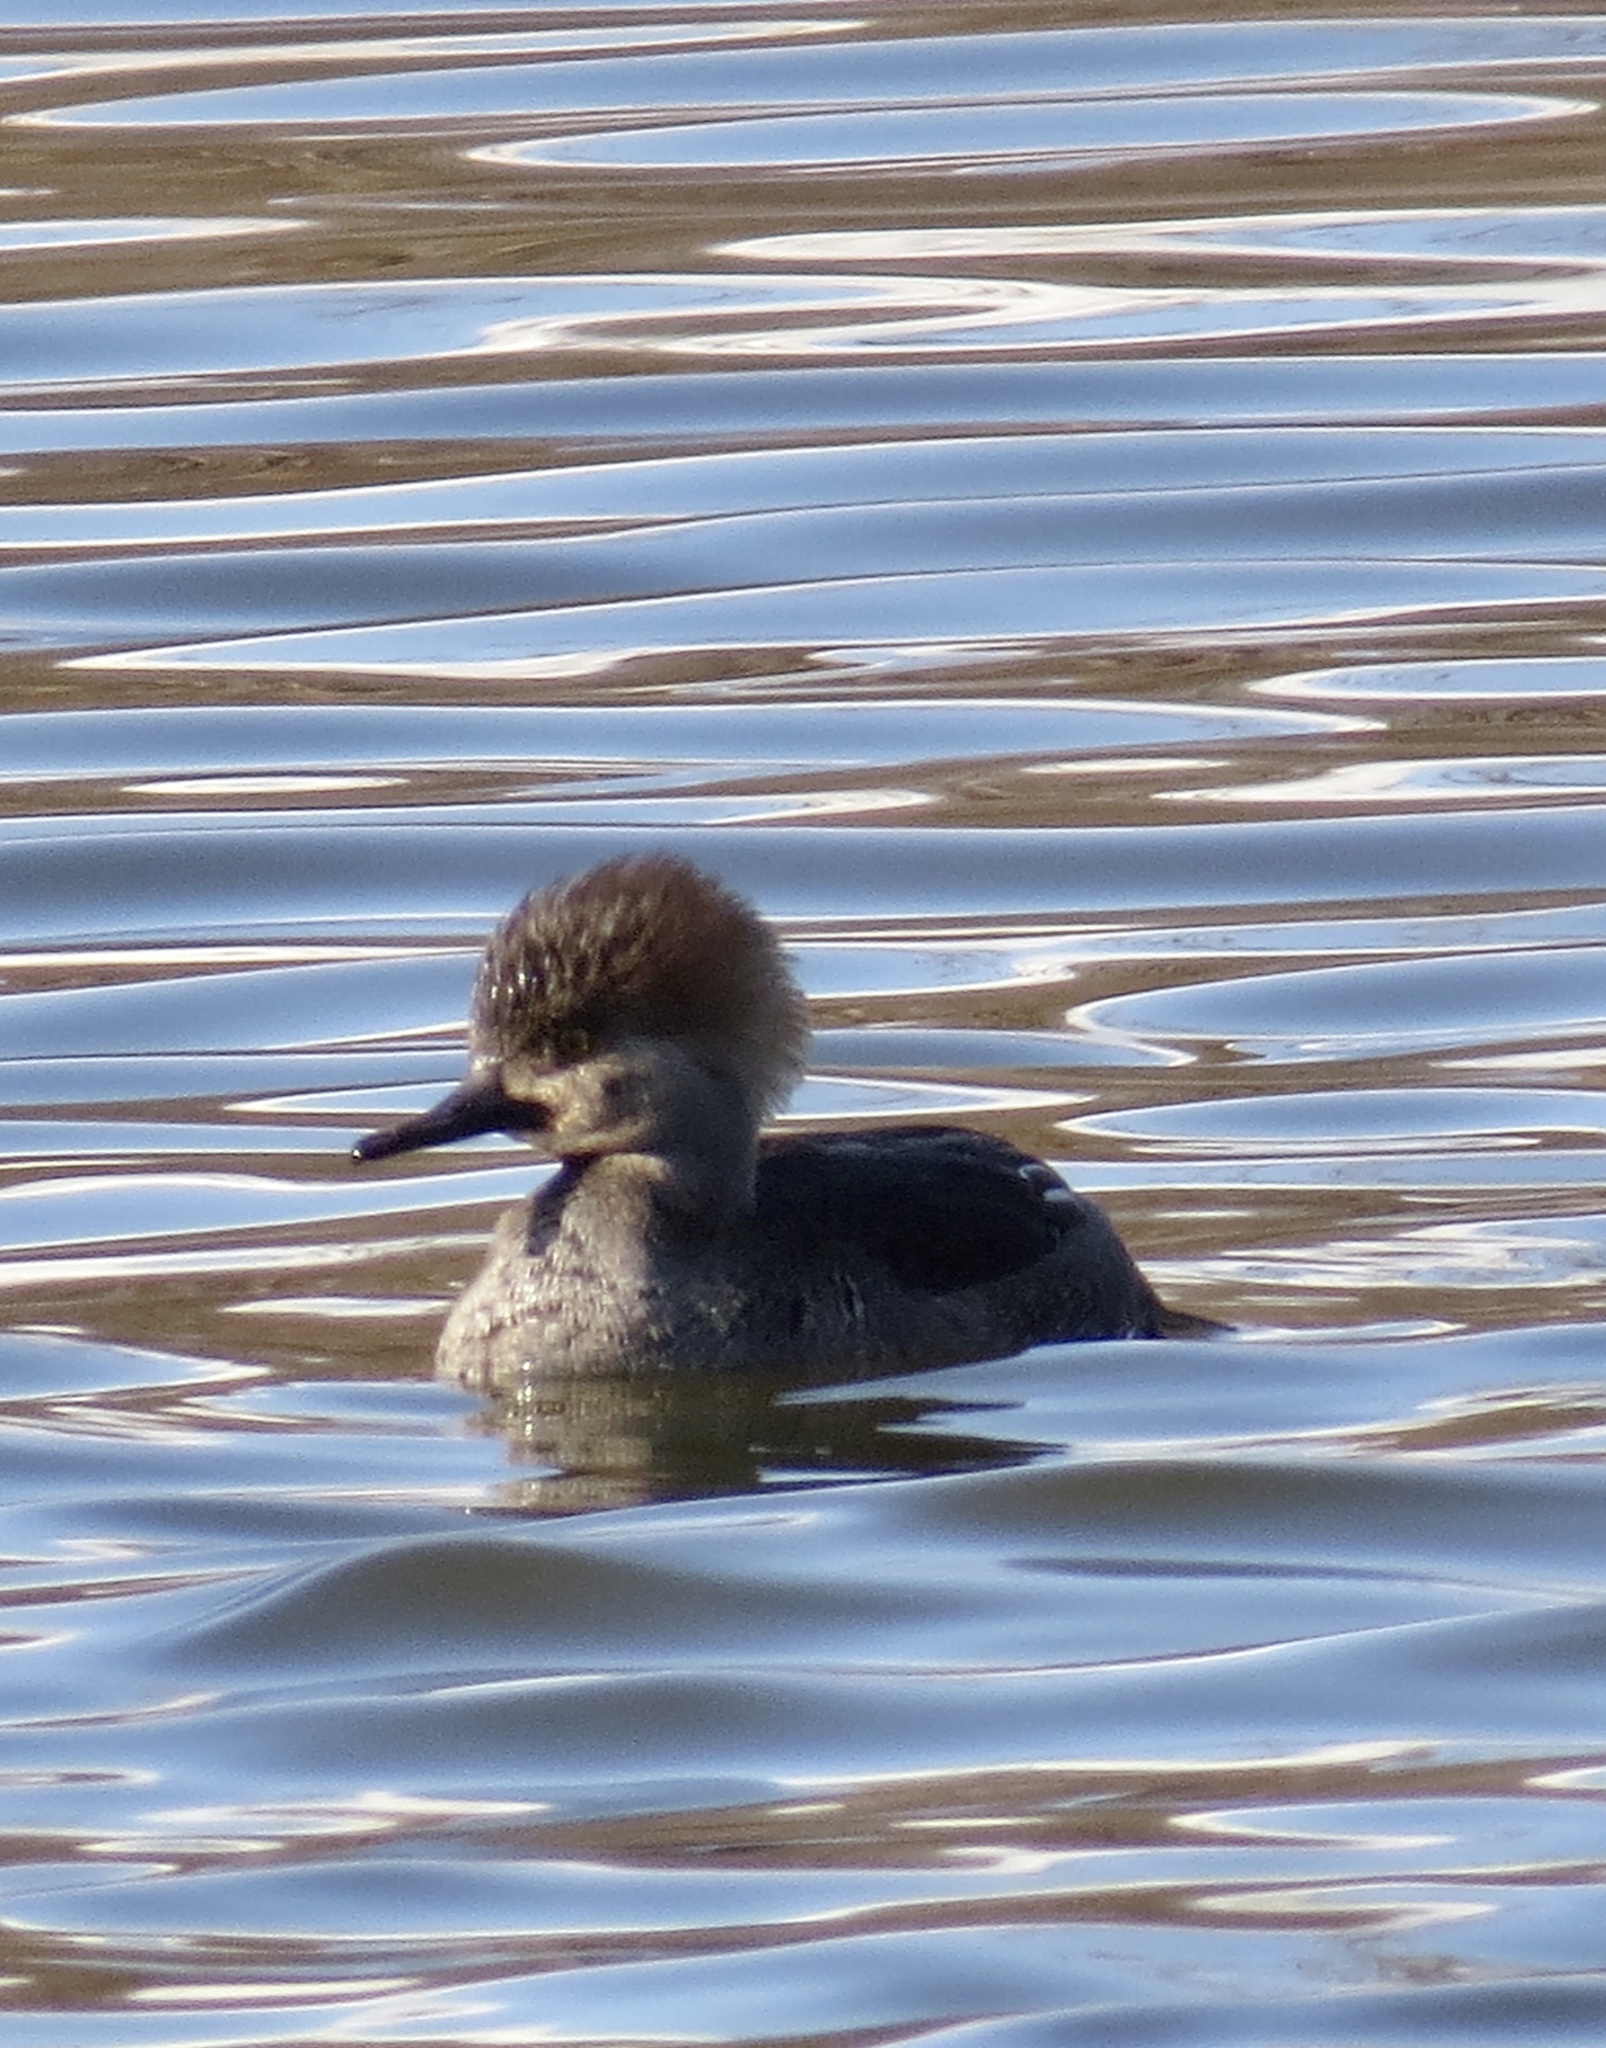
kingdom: Animalia
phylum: Chordata
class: Aves
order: Anseriformes
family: Anatidae
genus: Lophodytes
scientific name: Lophodytes cucullatus
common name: Hooded merganser
